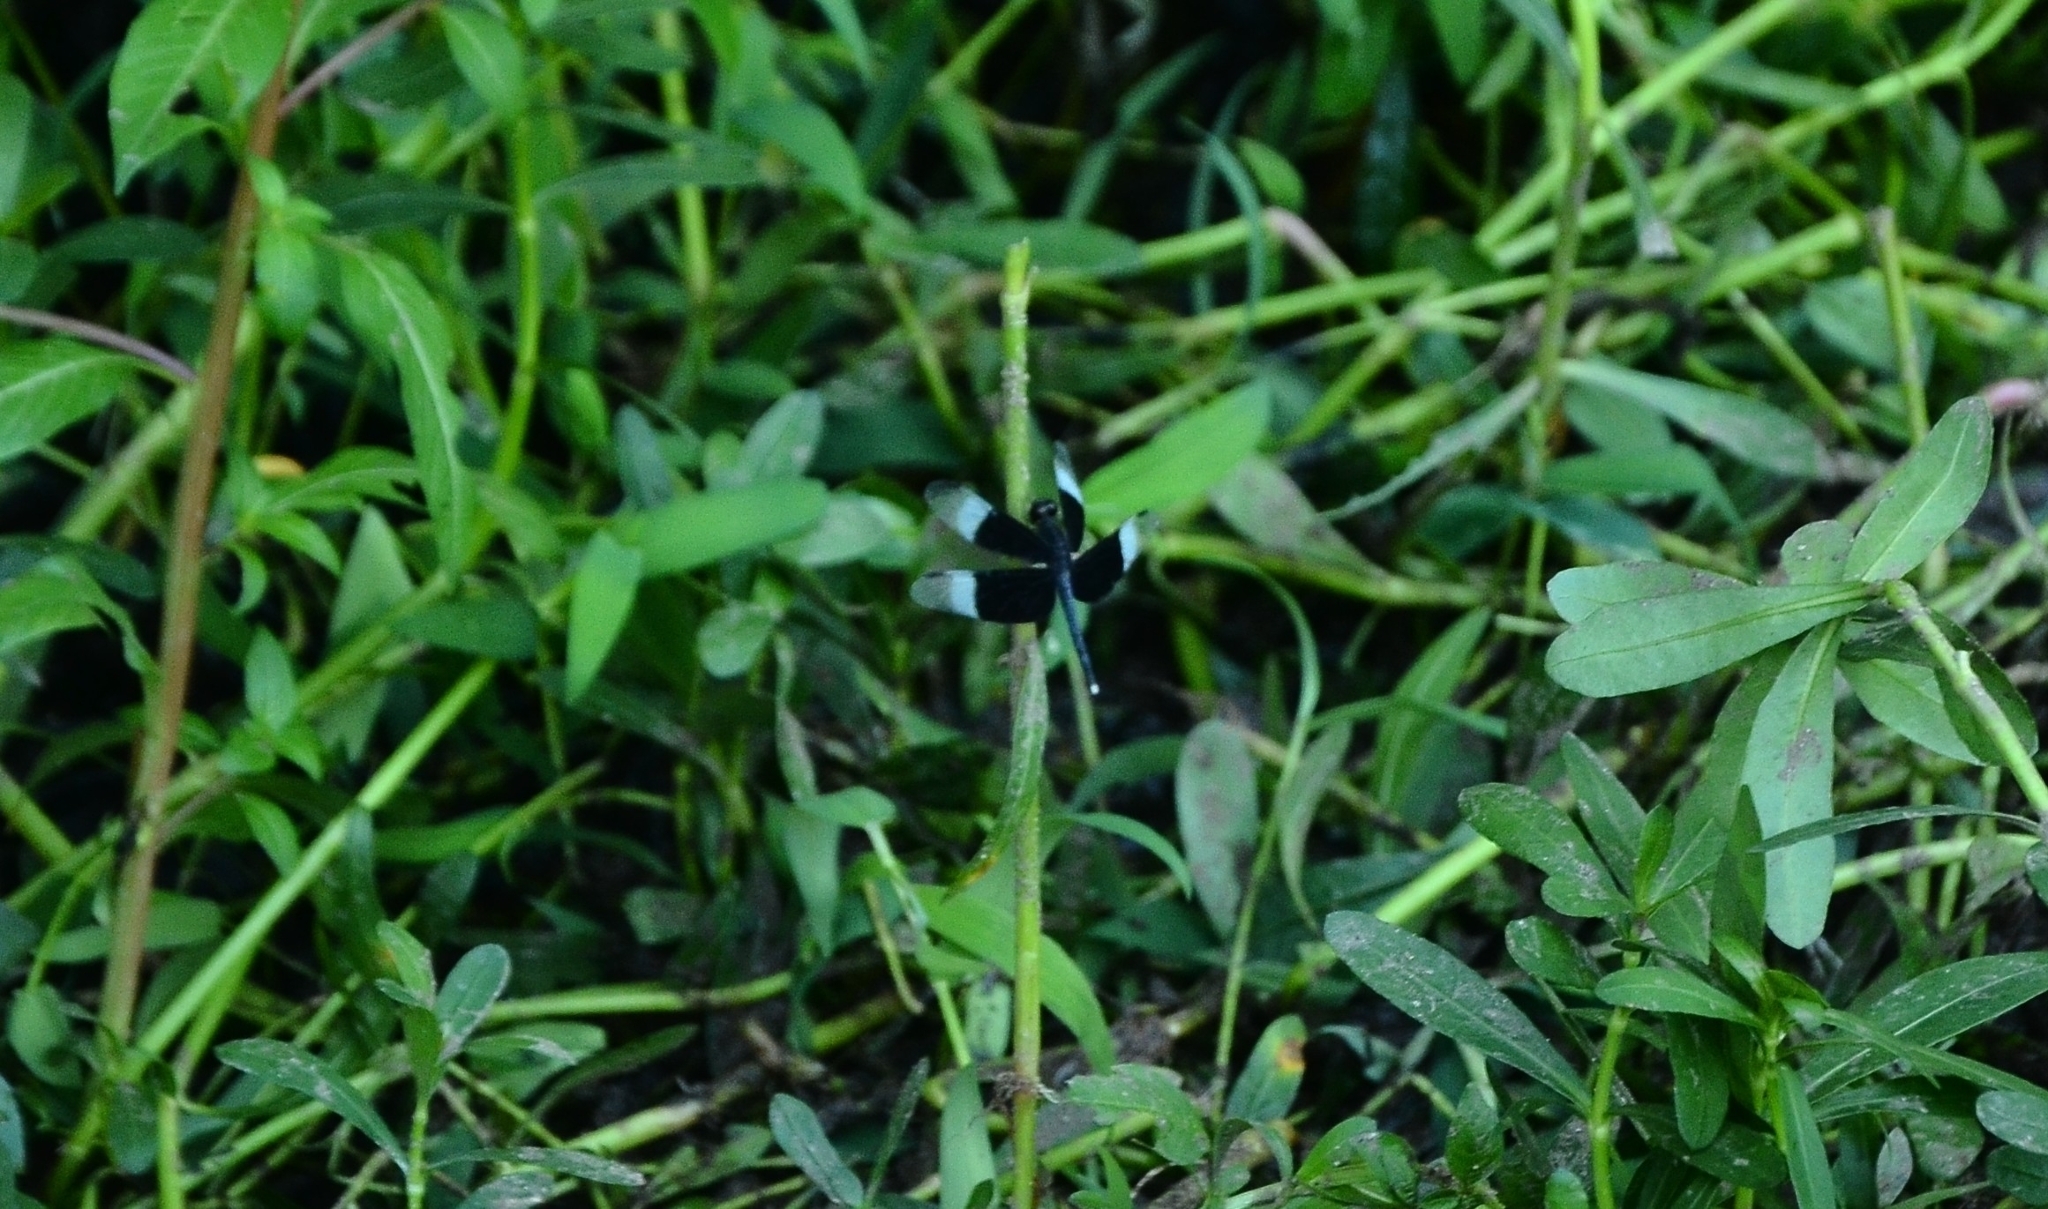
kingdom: Animalia
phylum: Arthropoda
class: Insecta
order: Odonata
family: Libellulidae
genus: Neurothemis
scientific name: Neurothemis tullia
